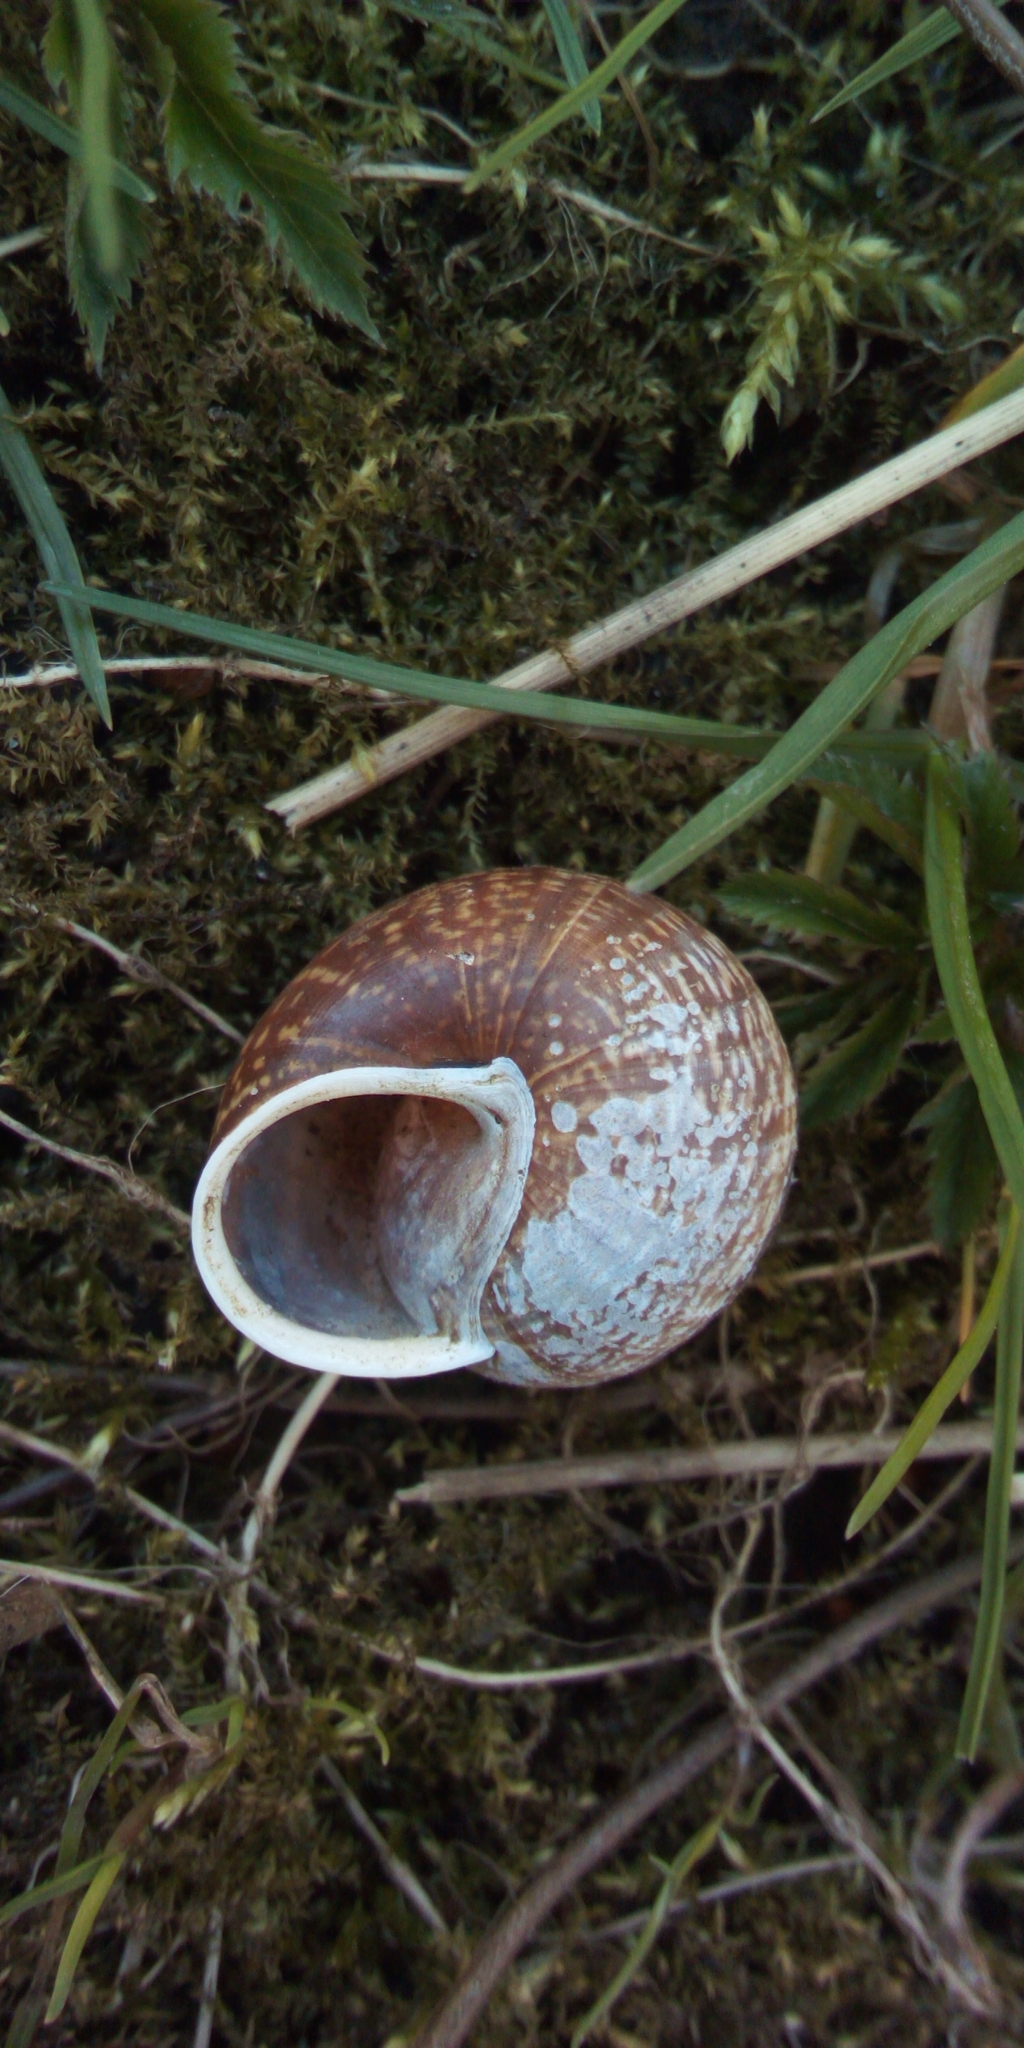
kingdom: Animalia
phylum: Mollusca
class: Gastropoda
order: Stylommatophora
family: Helicidae
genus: Arianta
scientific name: Arianta arbustorum
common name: Copse snail
